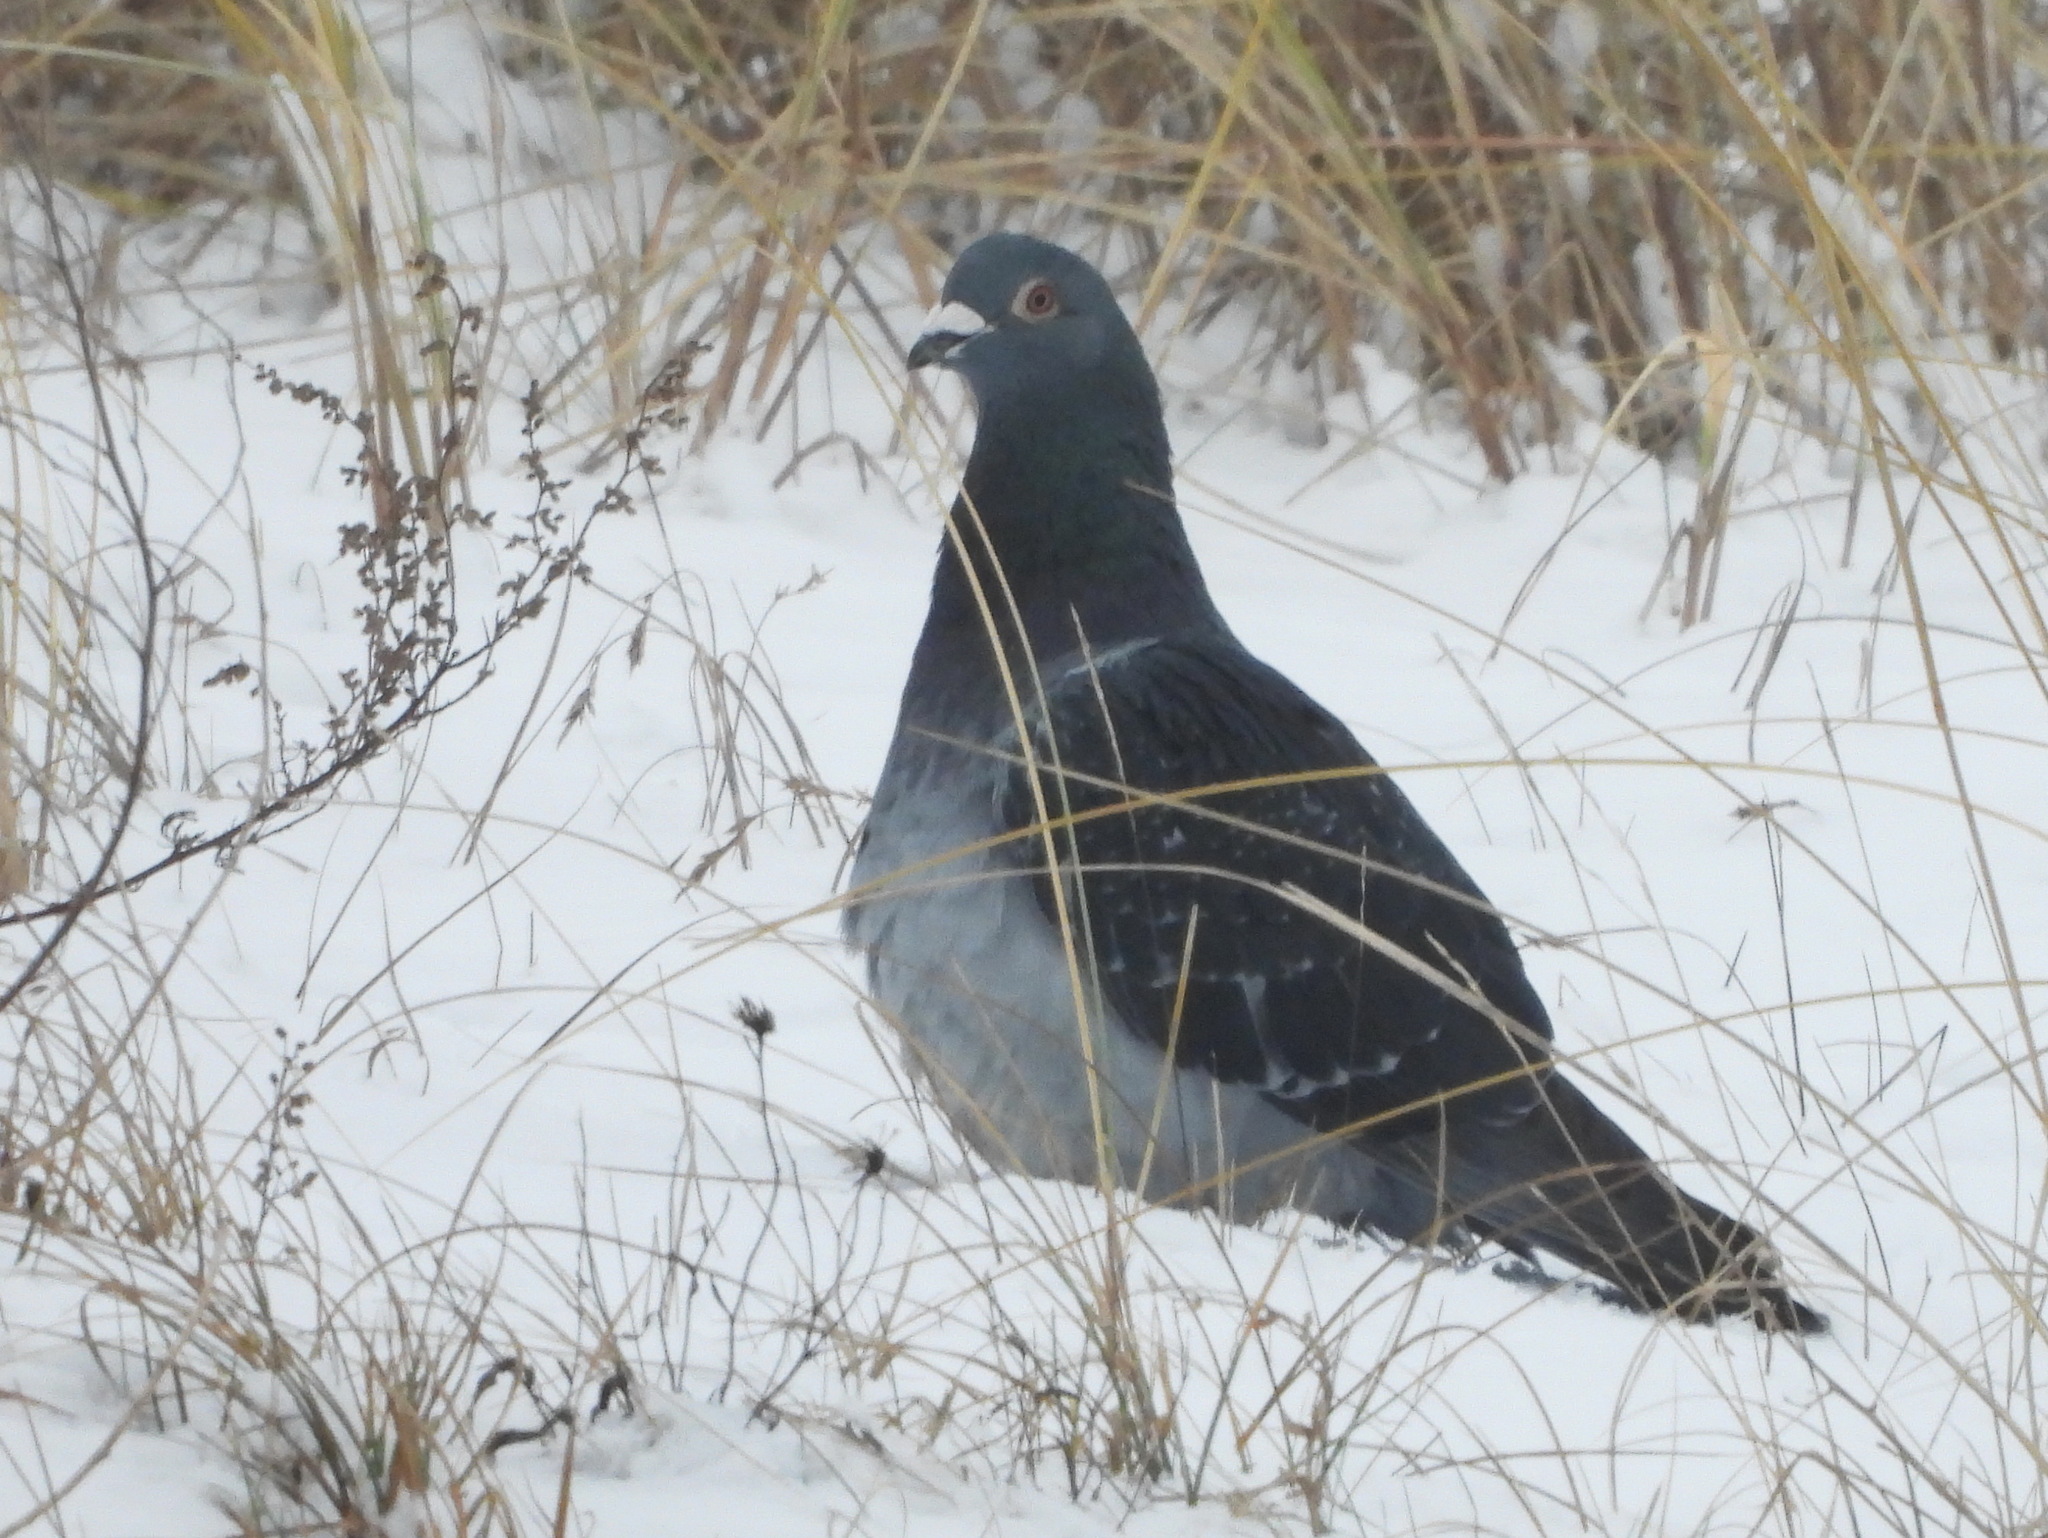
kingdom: Animalia
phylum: Chordata
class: Aves
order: Columbiformes
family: Columbidae
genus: Columba
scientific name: Columba livia
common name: Rock pigeon
